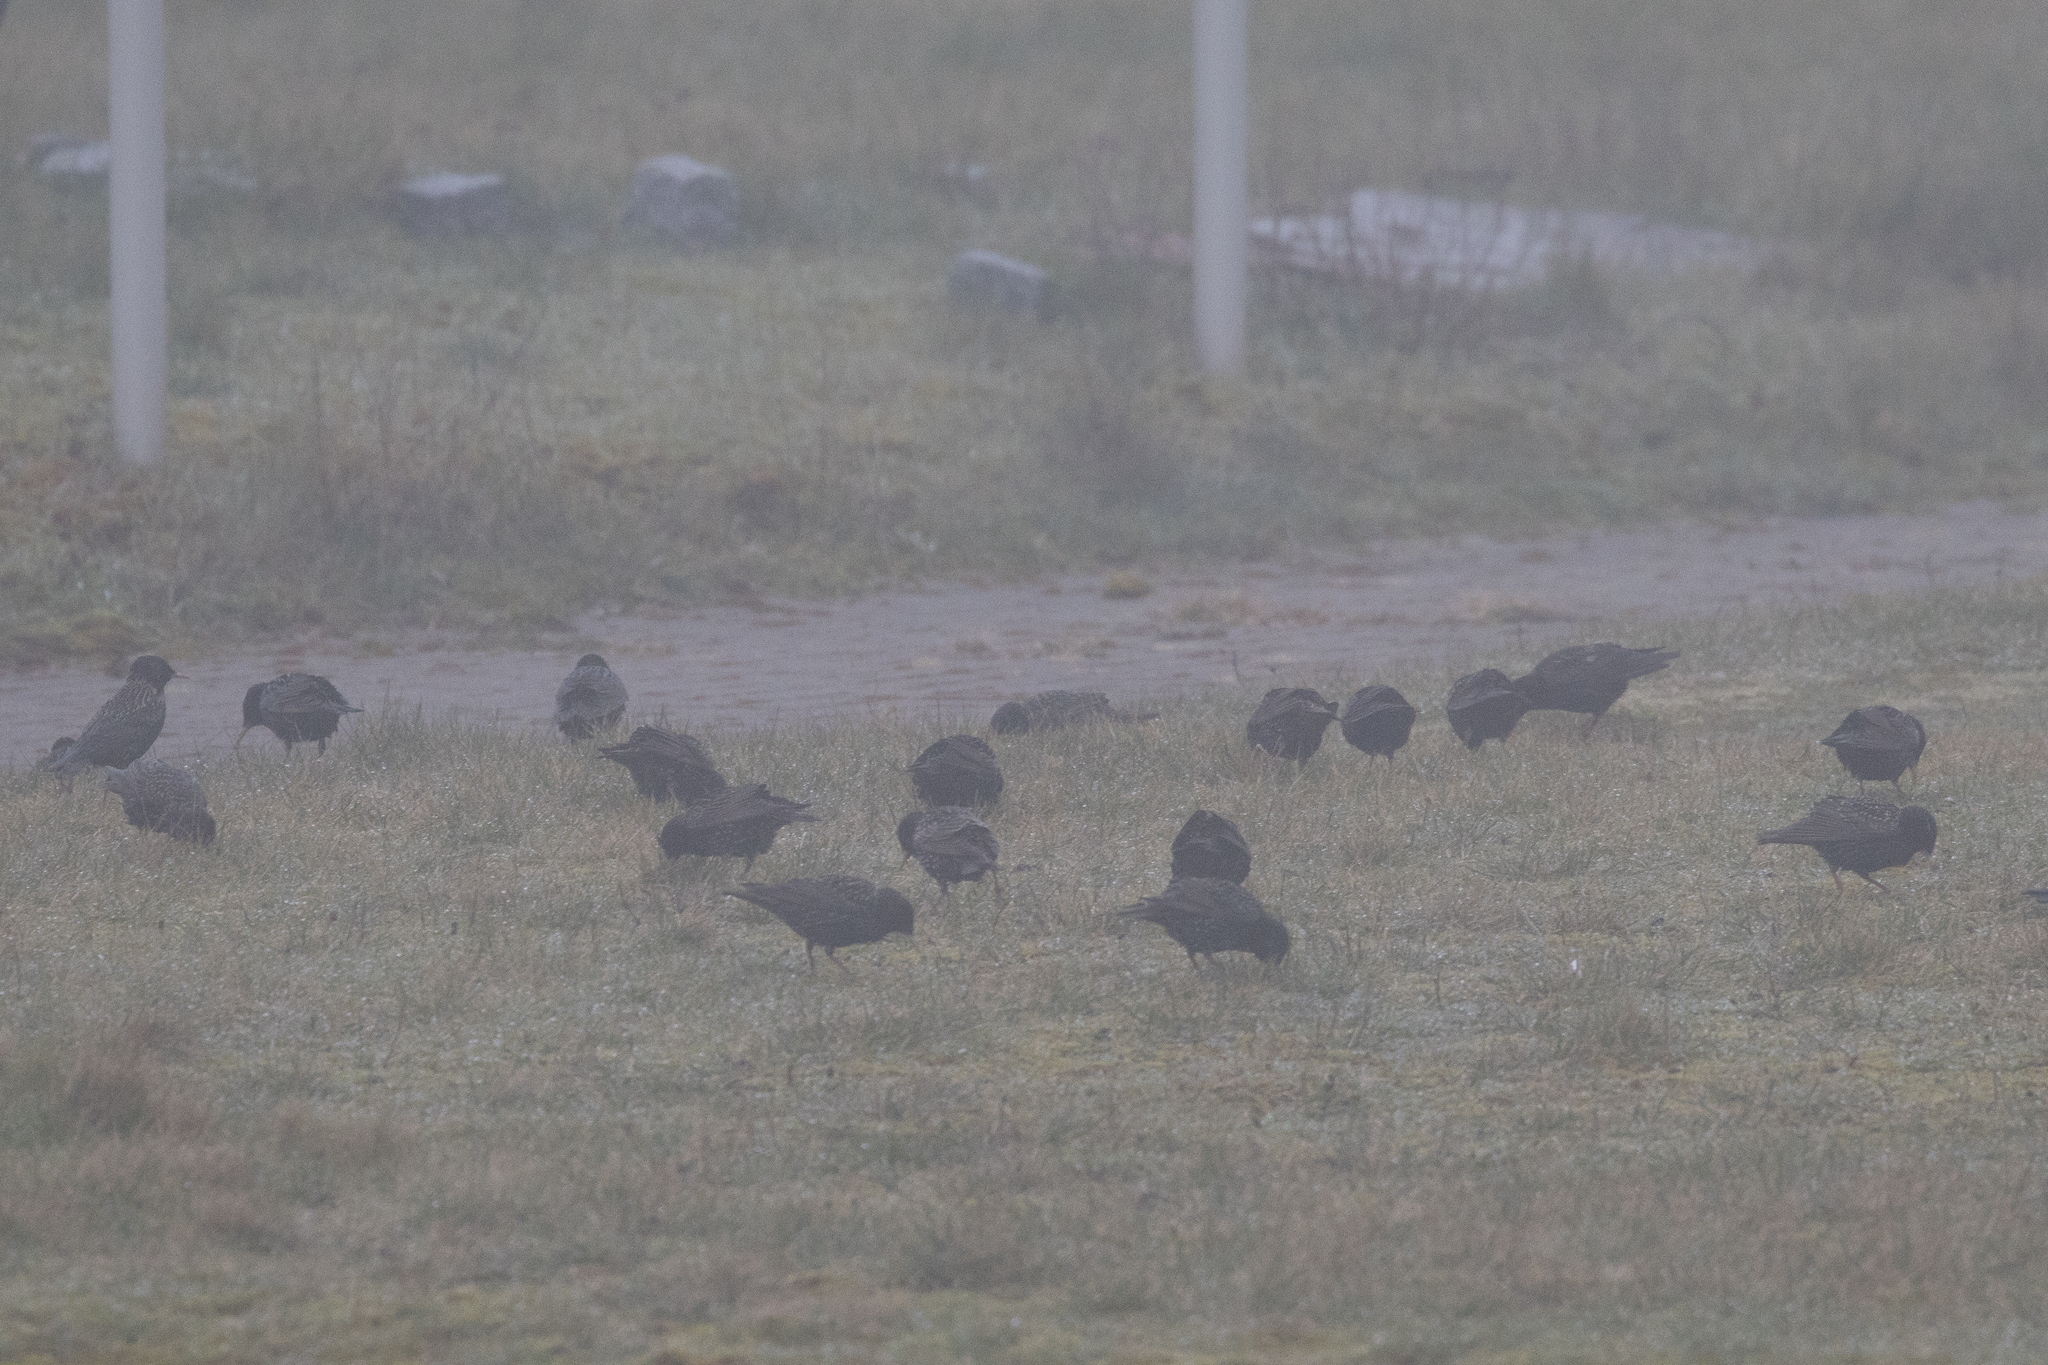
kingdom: Animalia
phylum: Chordata
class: Aves
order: Passeriformes
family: Sturnidae
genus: Sturnus
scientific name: Sturnus vulgaris
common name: Common starling
